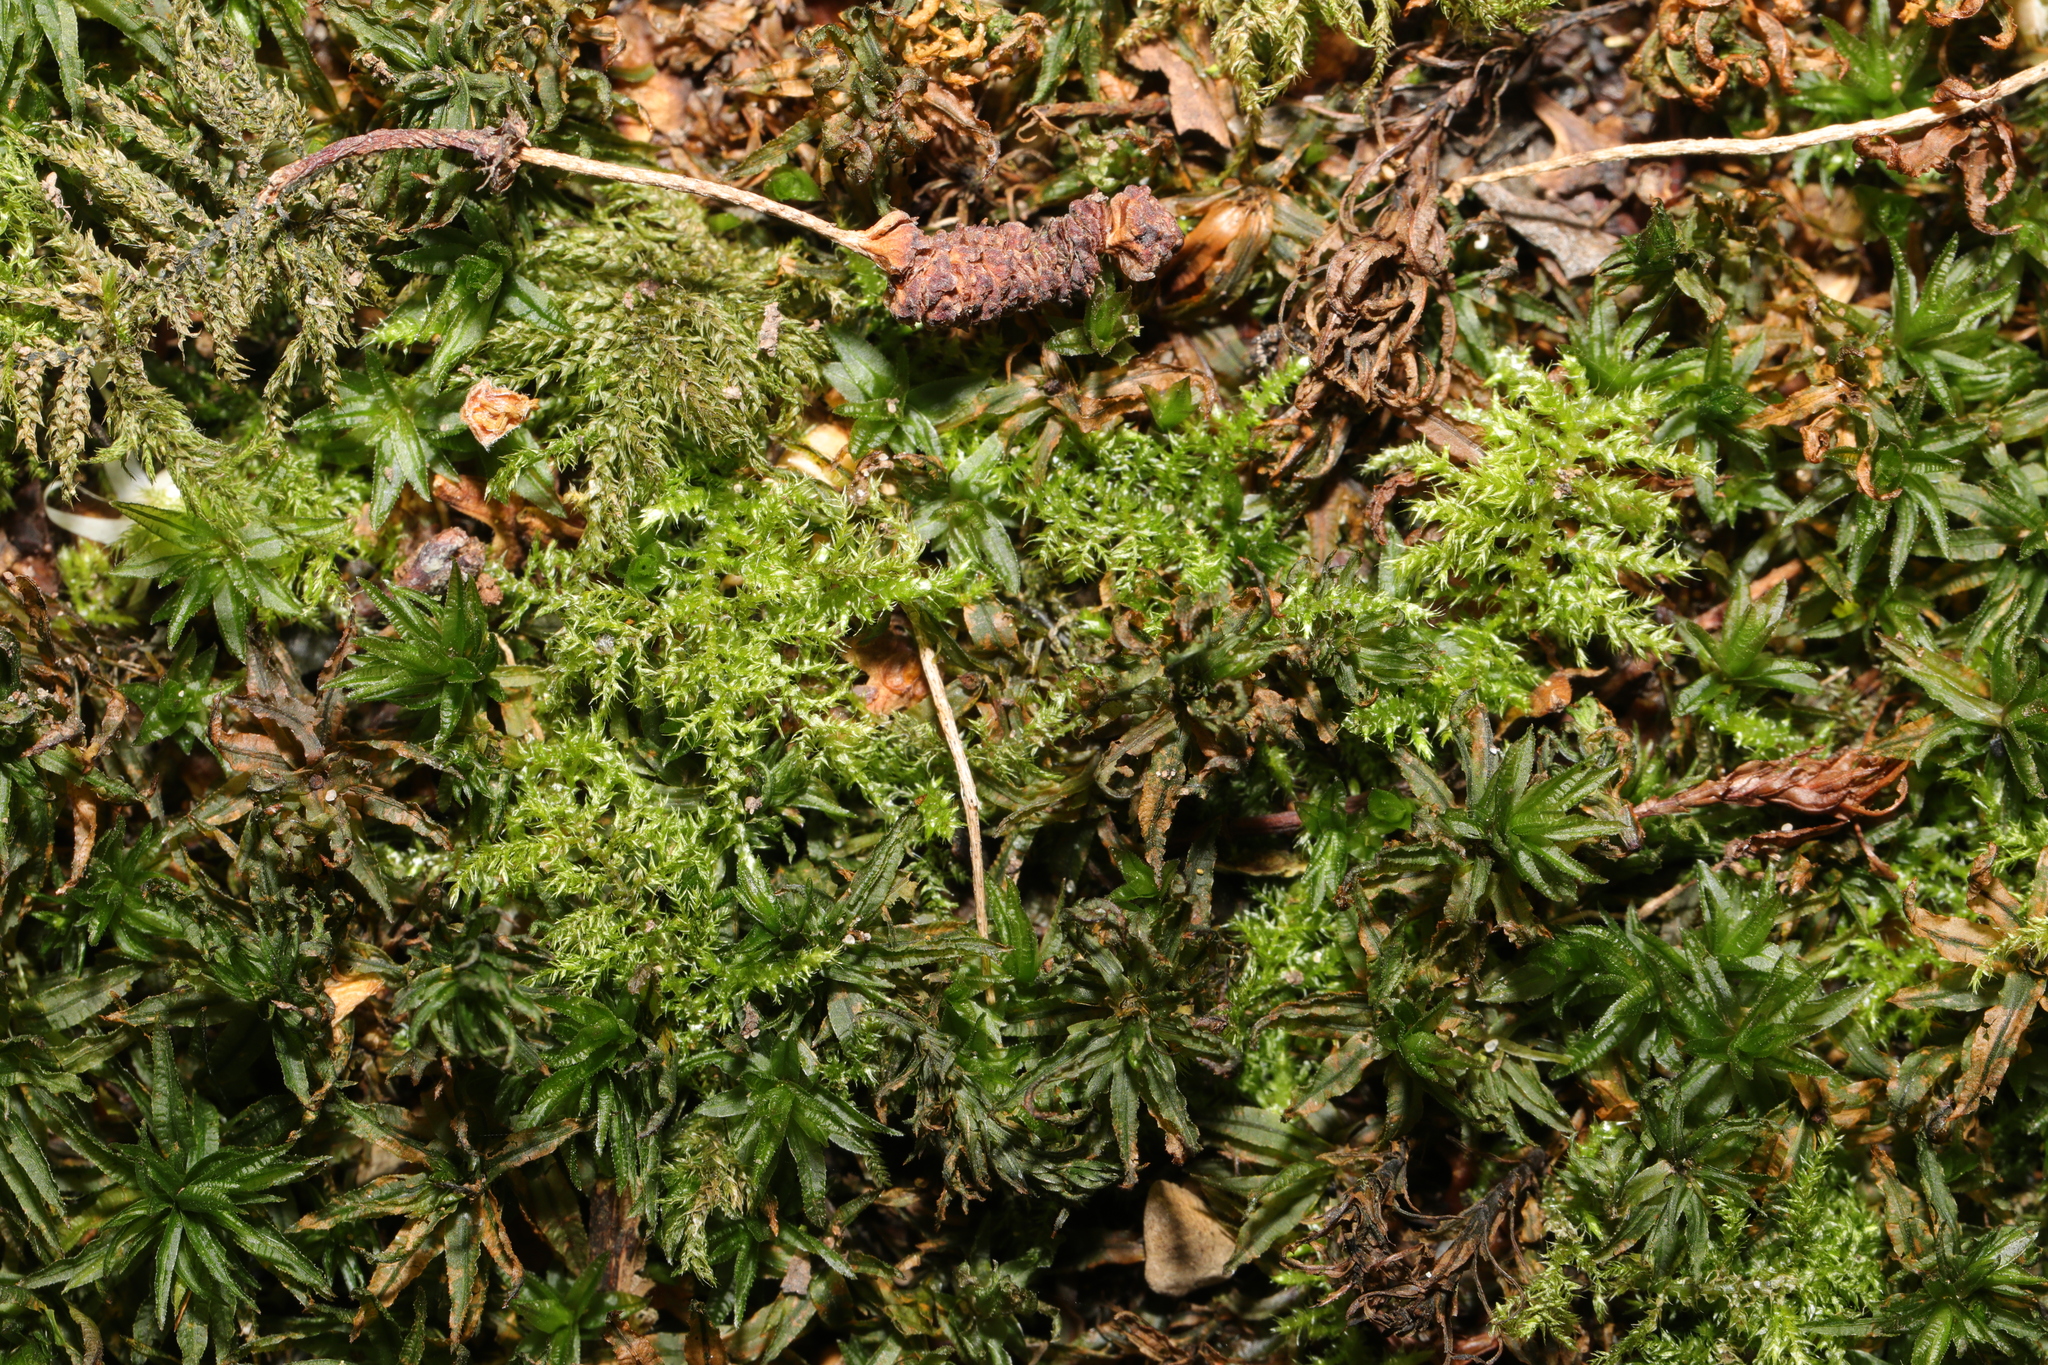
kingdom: Plantae
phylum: Bryophyta
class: Polytrichopsida
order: Polytrichales
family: Polytrichaceae
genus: Atrichum
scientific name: Atrichum undulatum
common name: Common smoothcap
